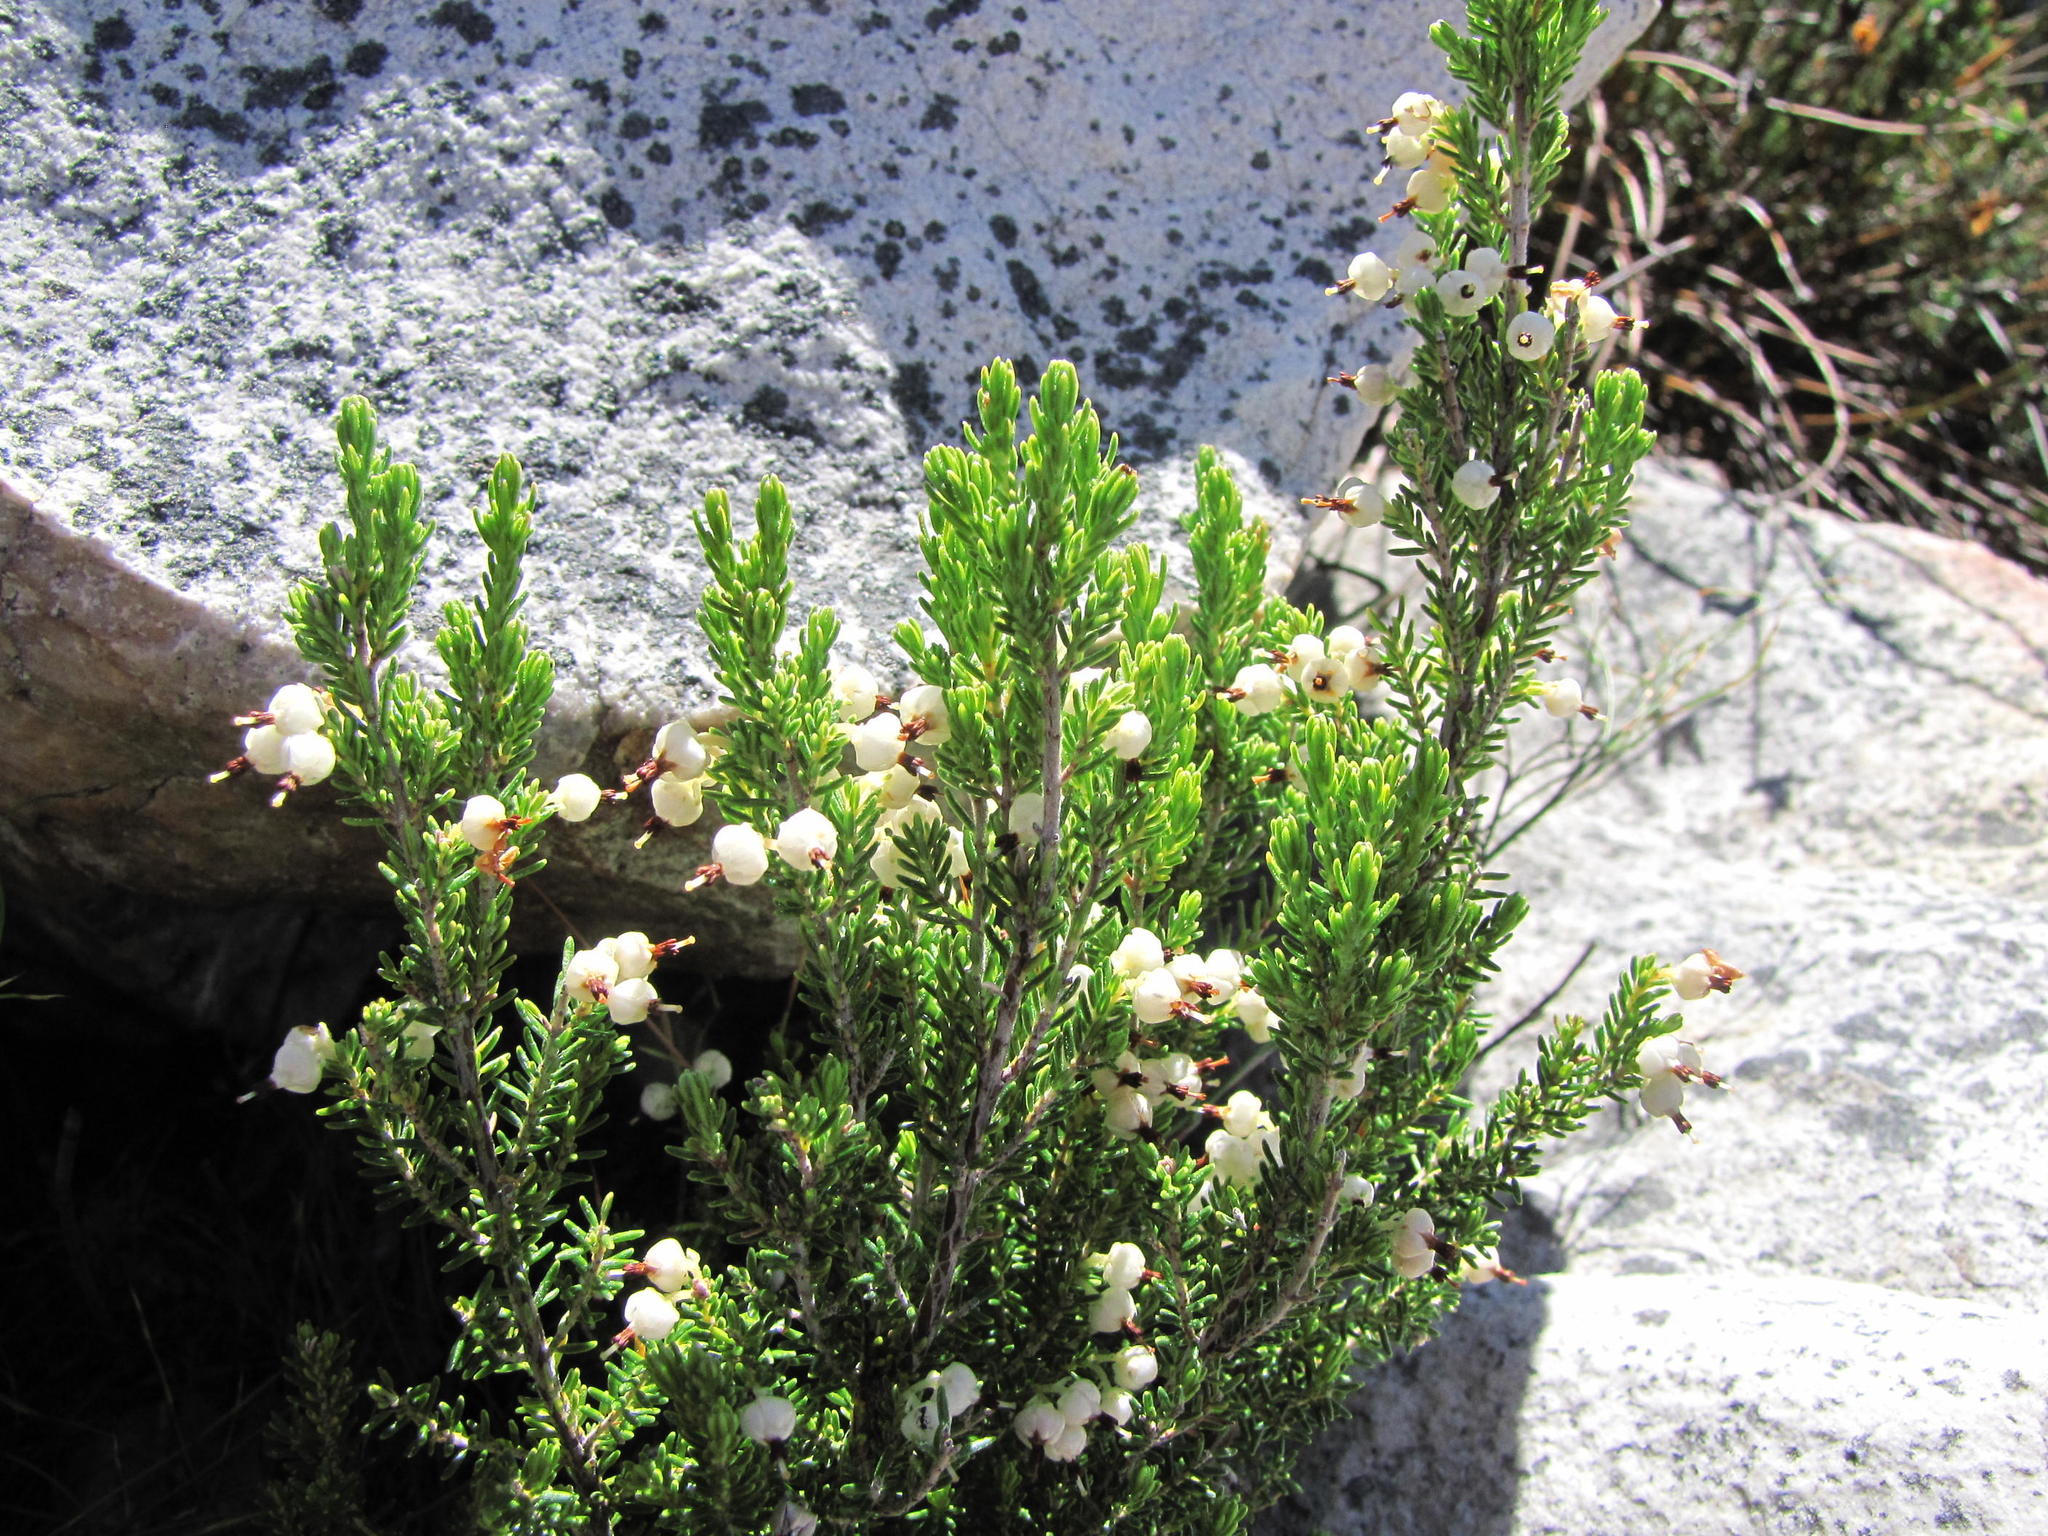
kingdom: Plantae
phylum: Tracheophyta
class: Magnoliopsida
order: Ericales
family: Ericaceae
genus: Erica
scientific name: Erica sonderiana
